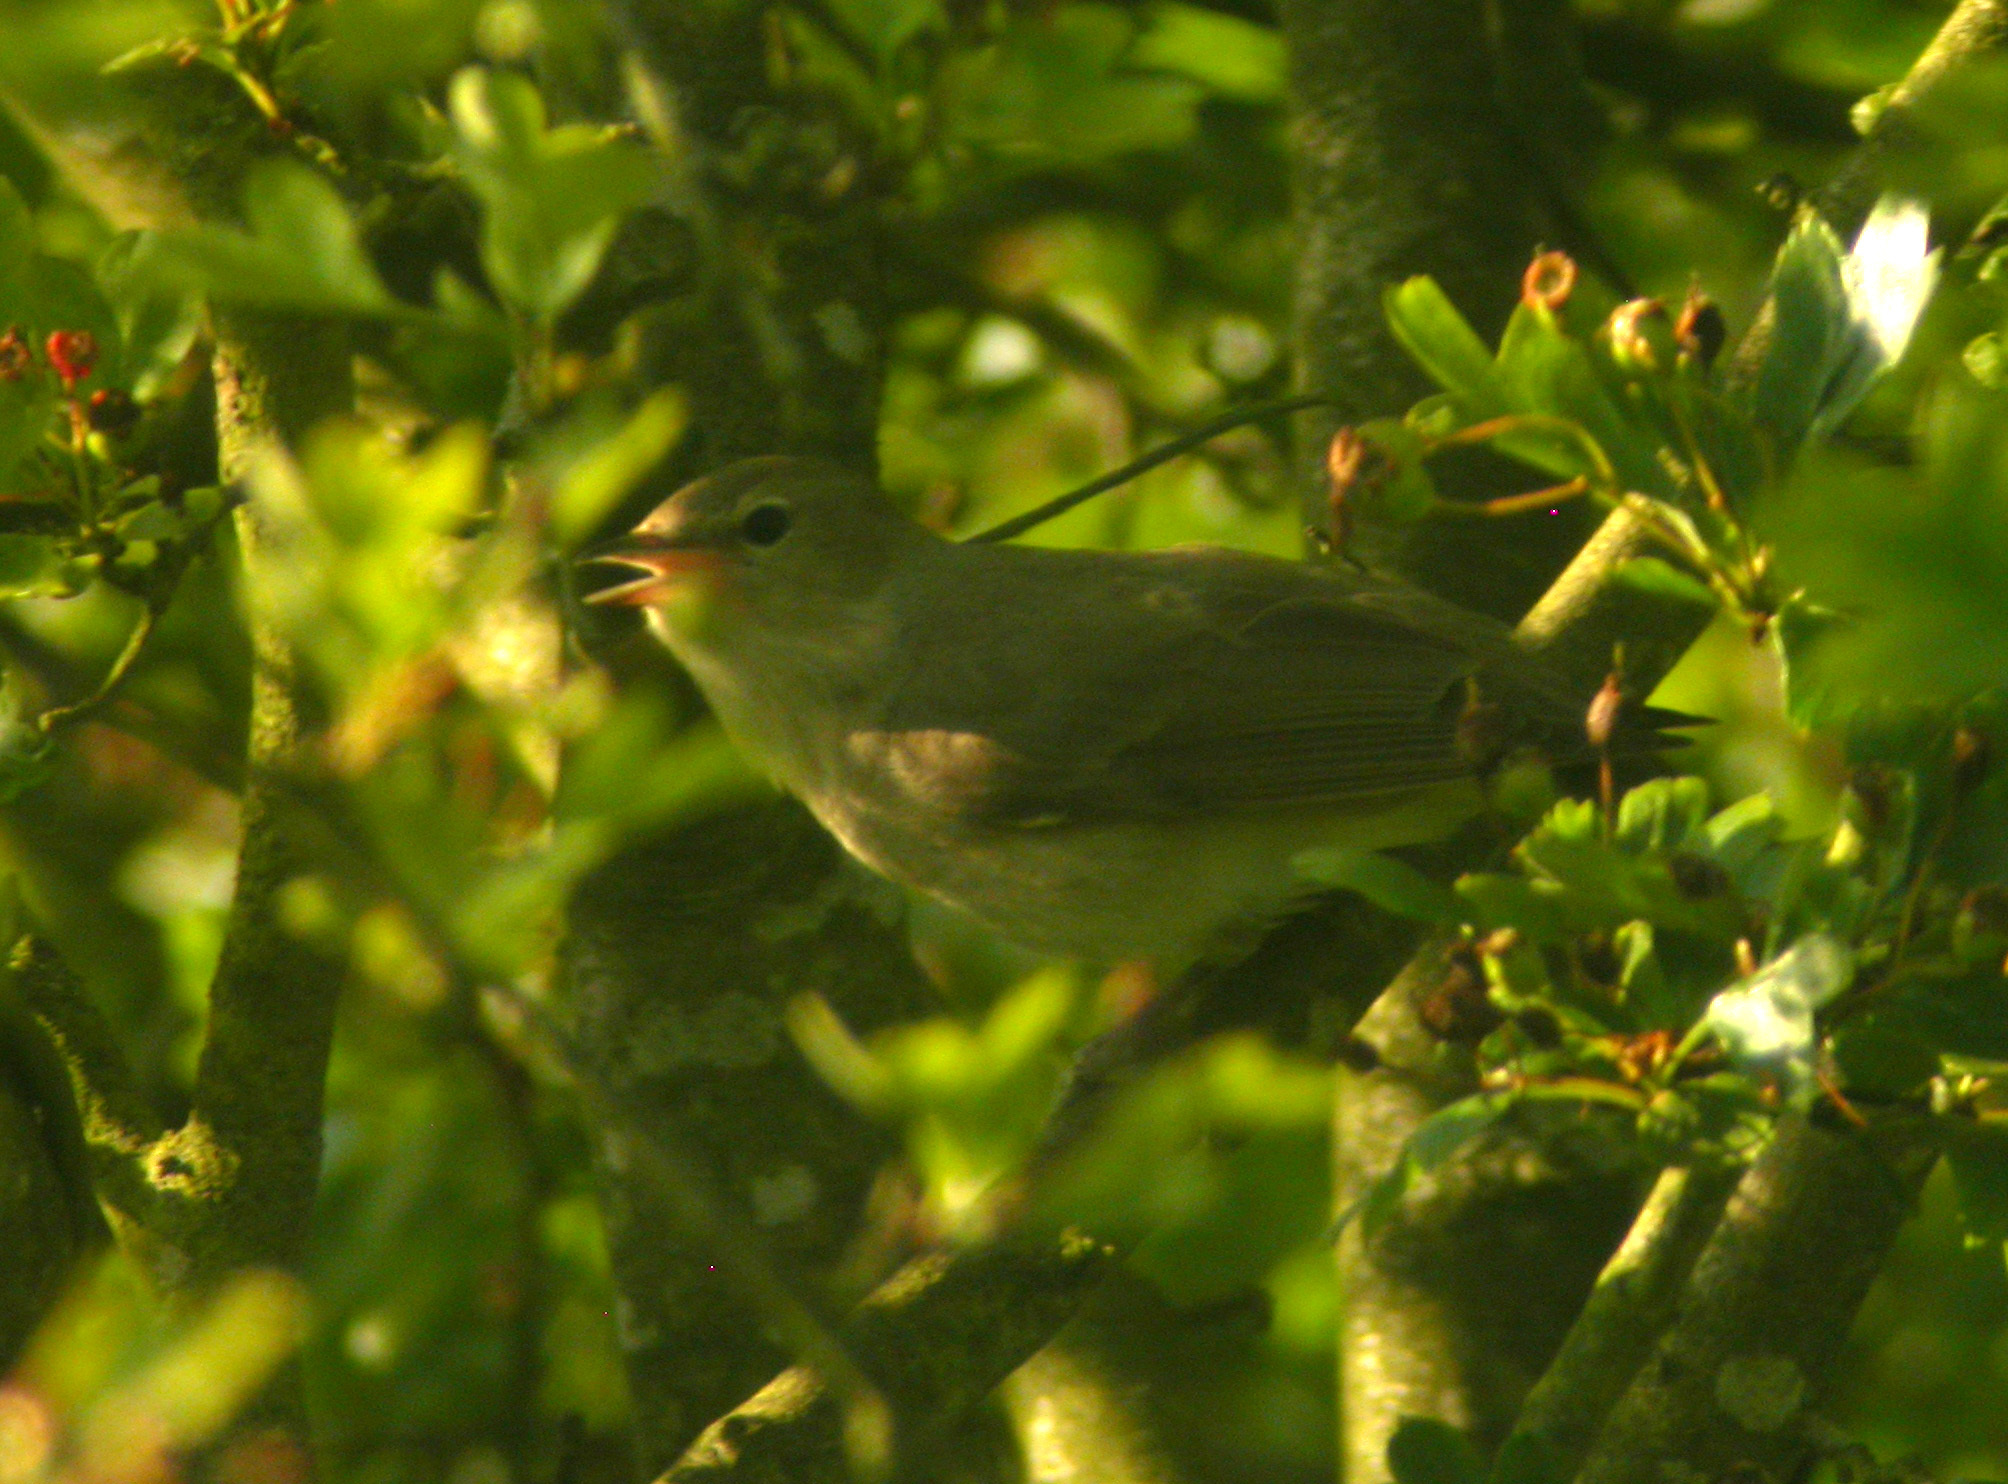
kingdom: Animalia
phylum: Chordata
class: Aves
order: Passeriformes
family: Sylviidae
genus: Sylvia
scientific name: Sylvia borin
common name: Garden warbler
